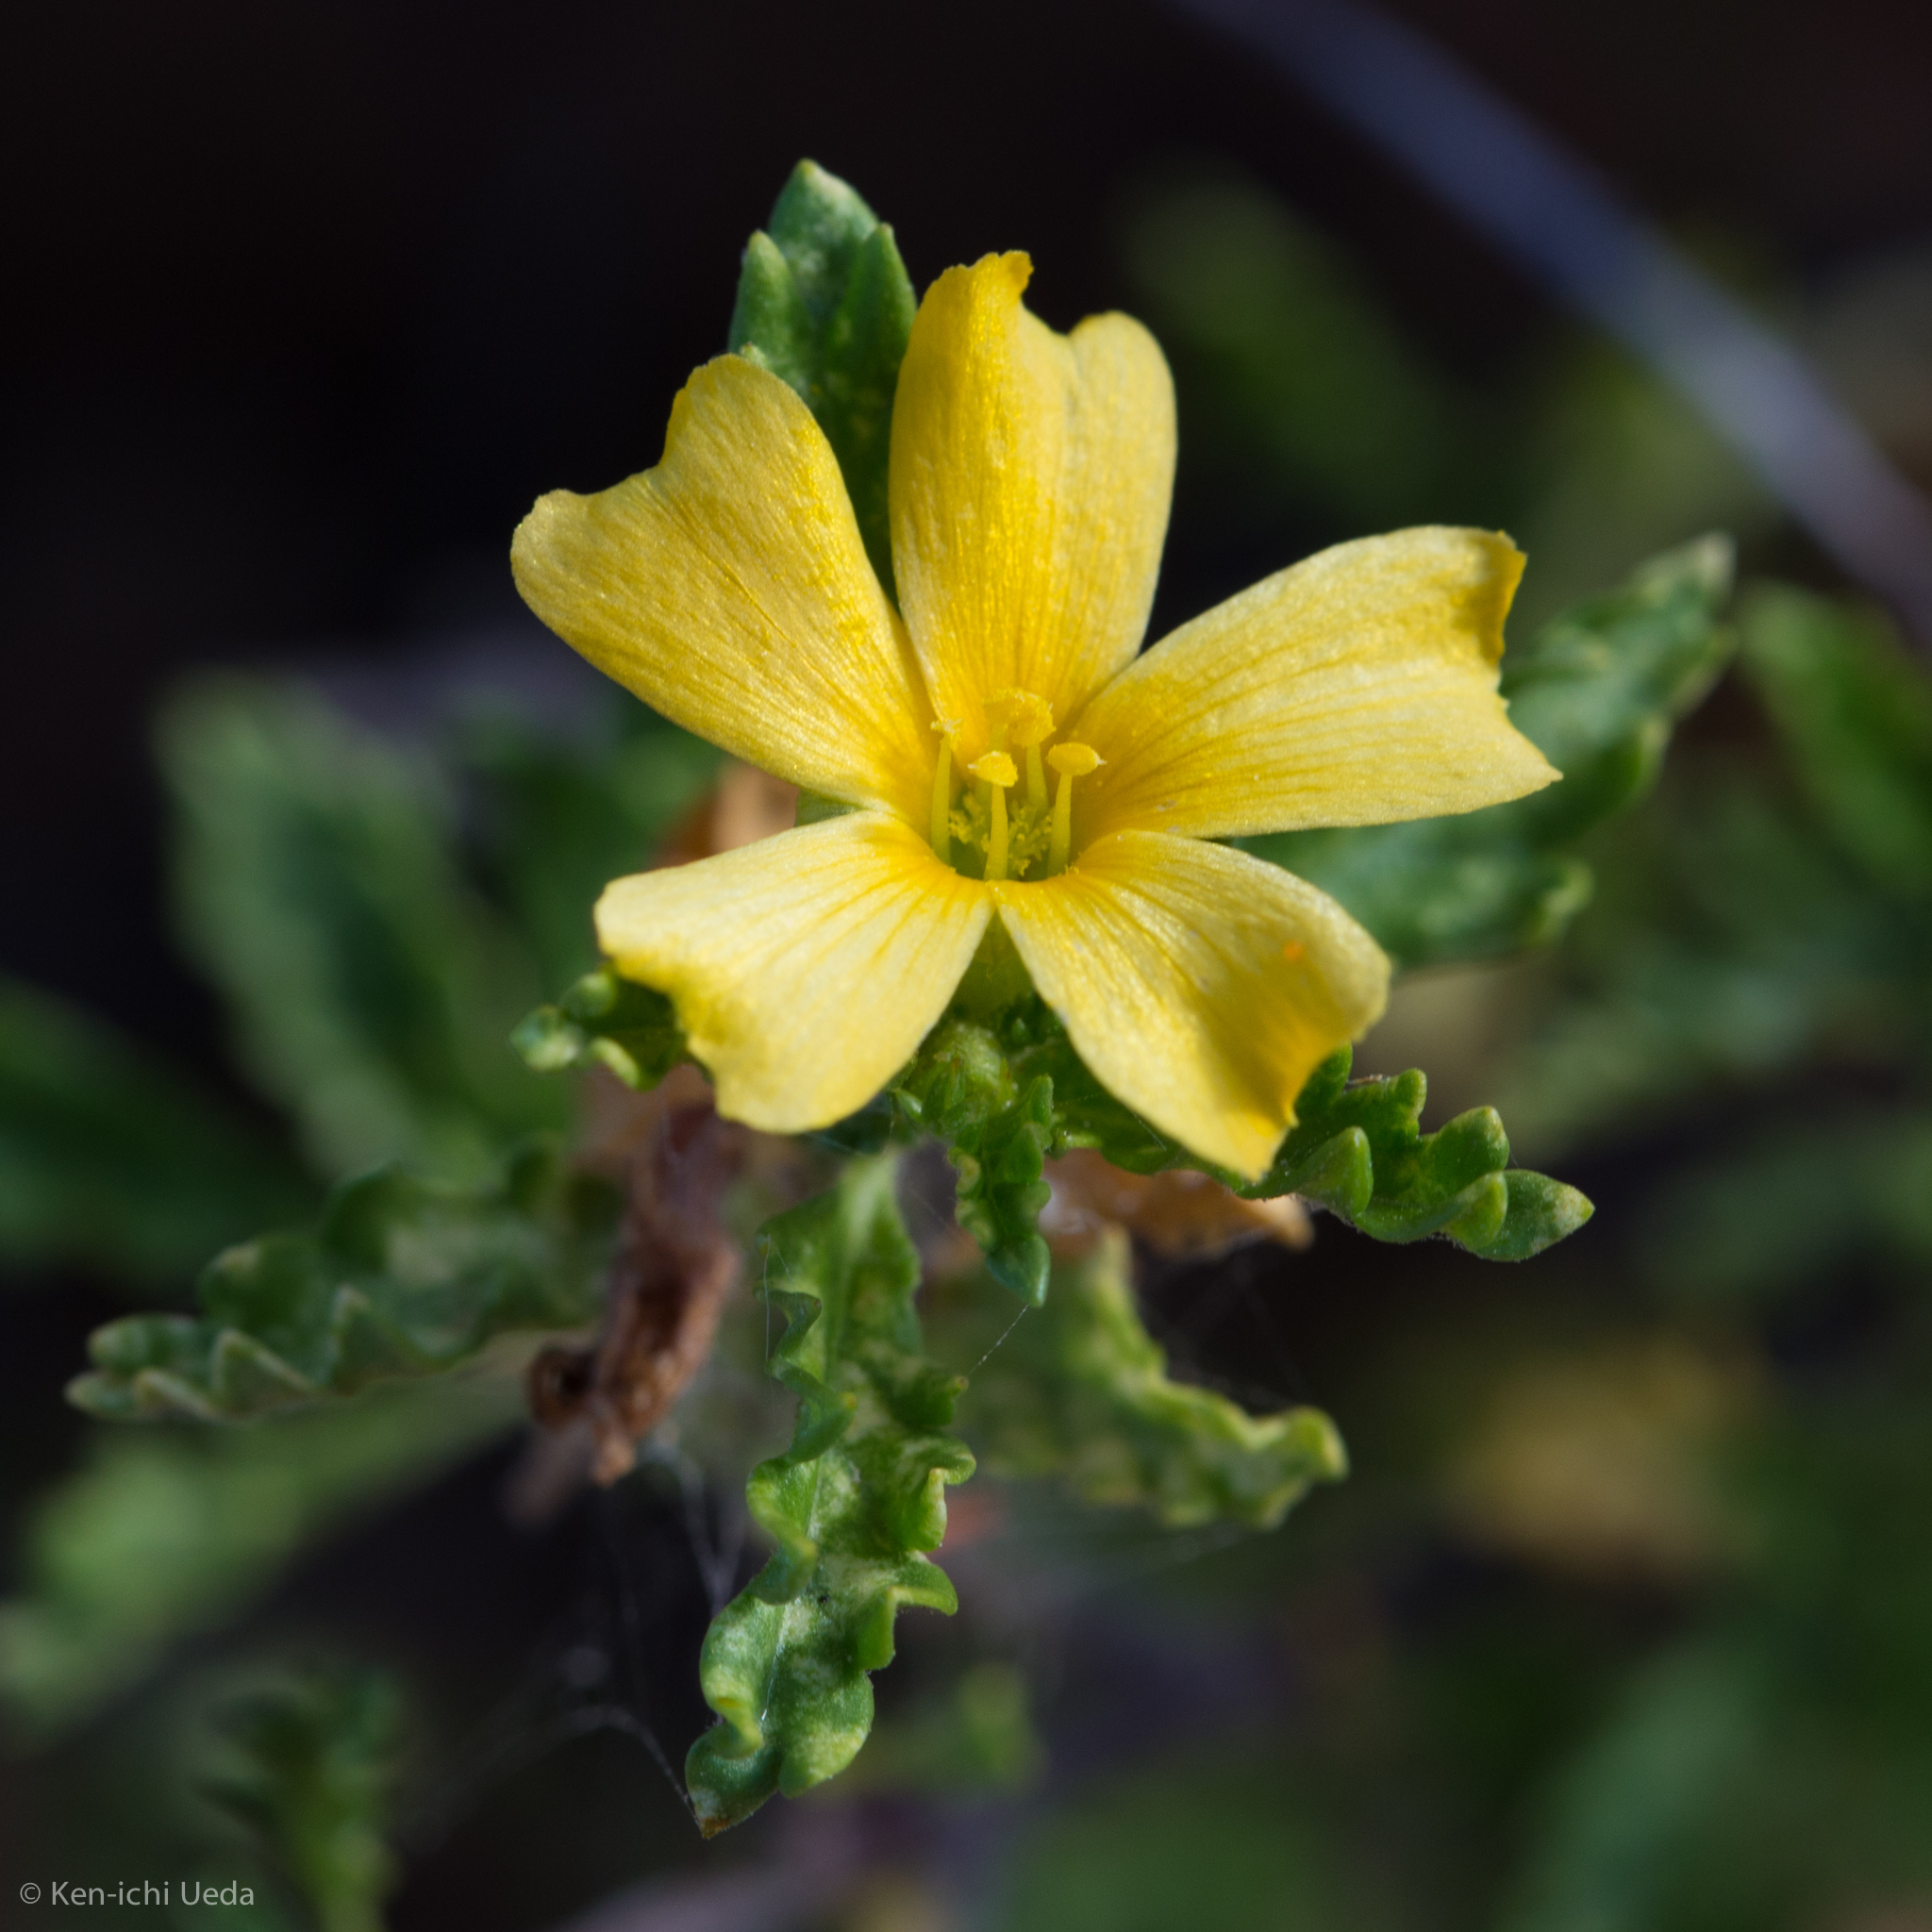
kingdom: Plantae
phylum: Tracheophyta
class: Magnoliopsida
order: Malpighiales
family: Turneraceae
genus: Turnera
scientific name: Turnera diffusa
